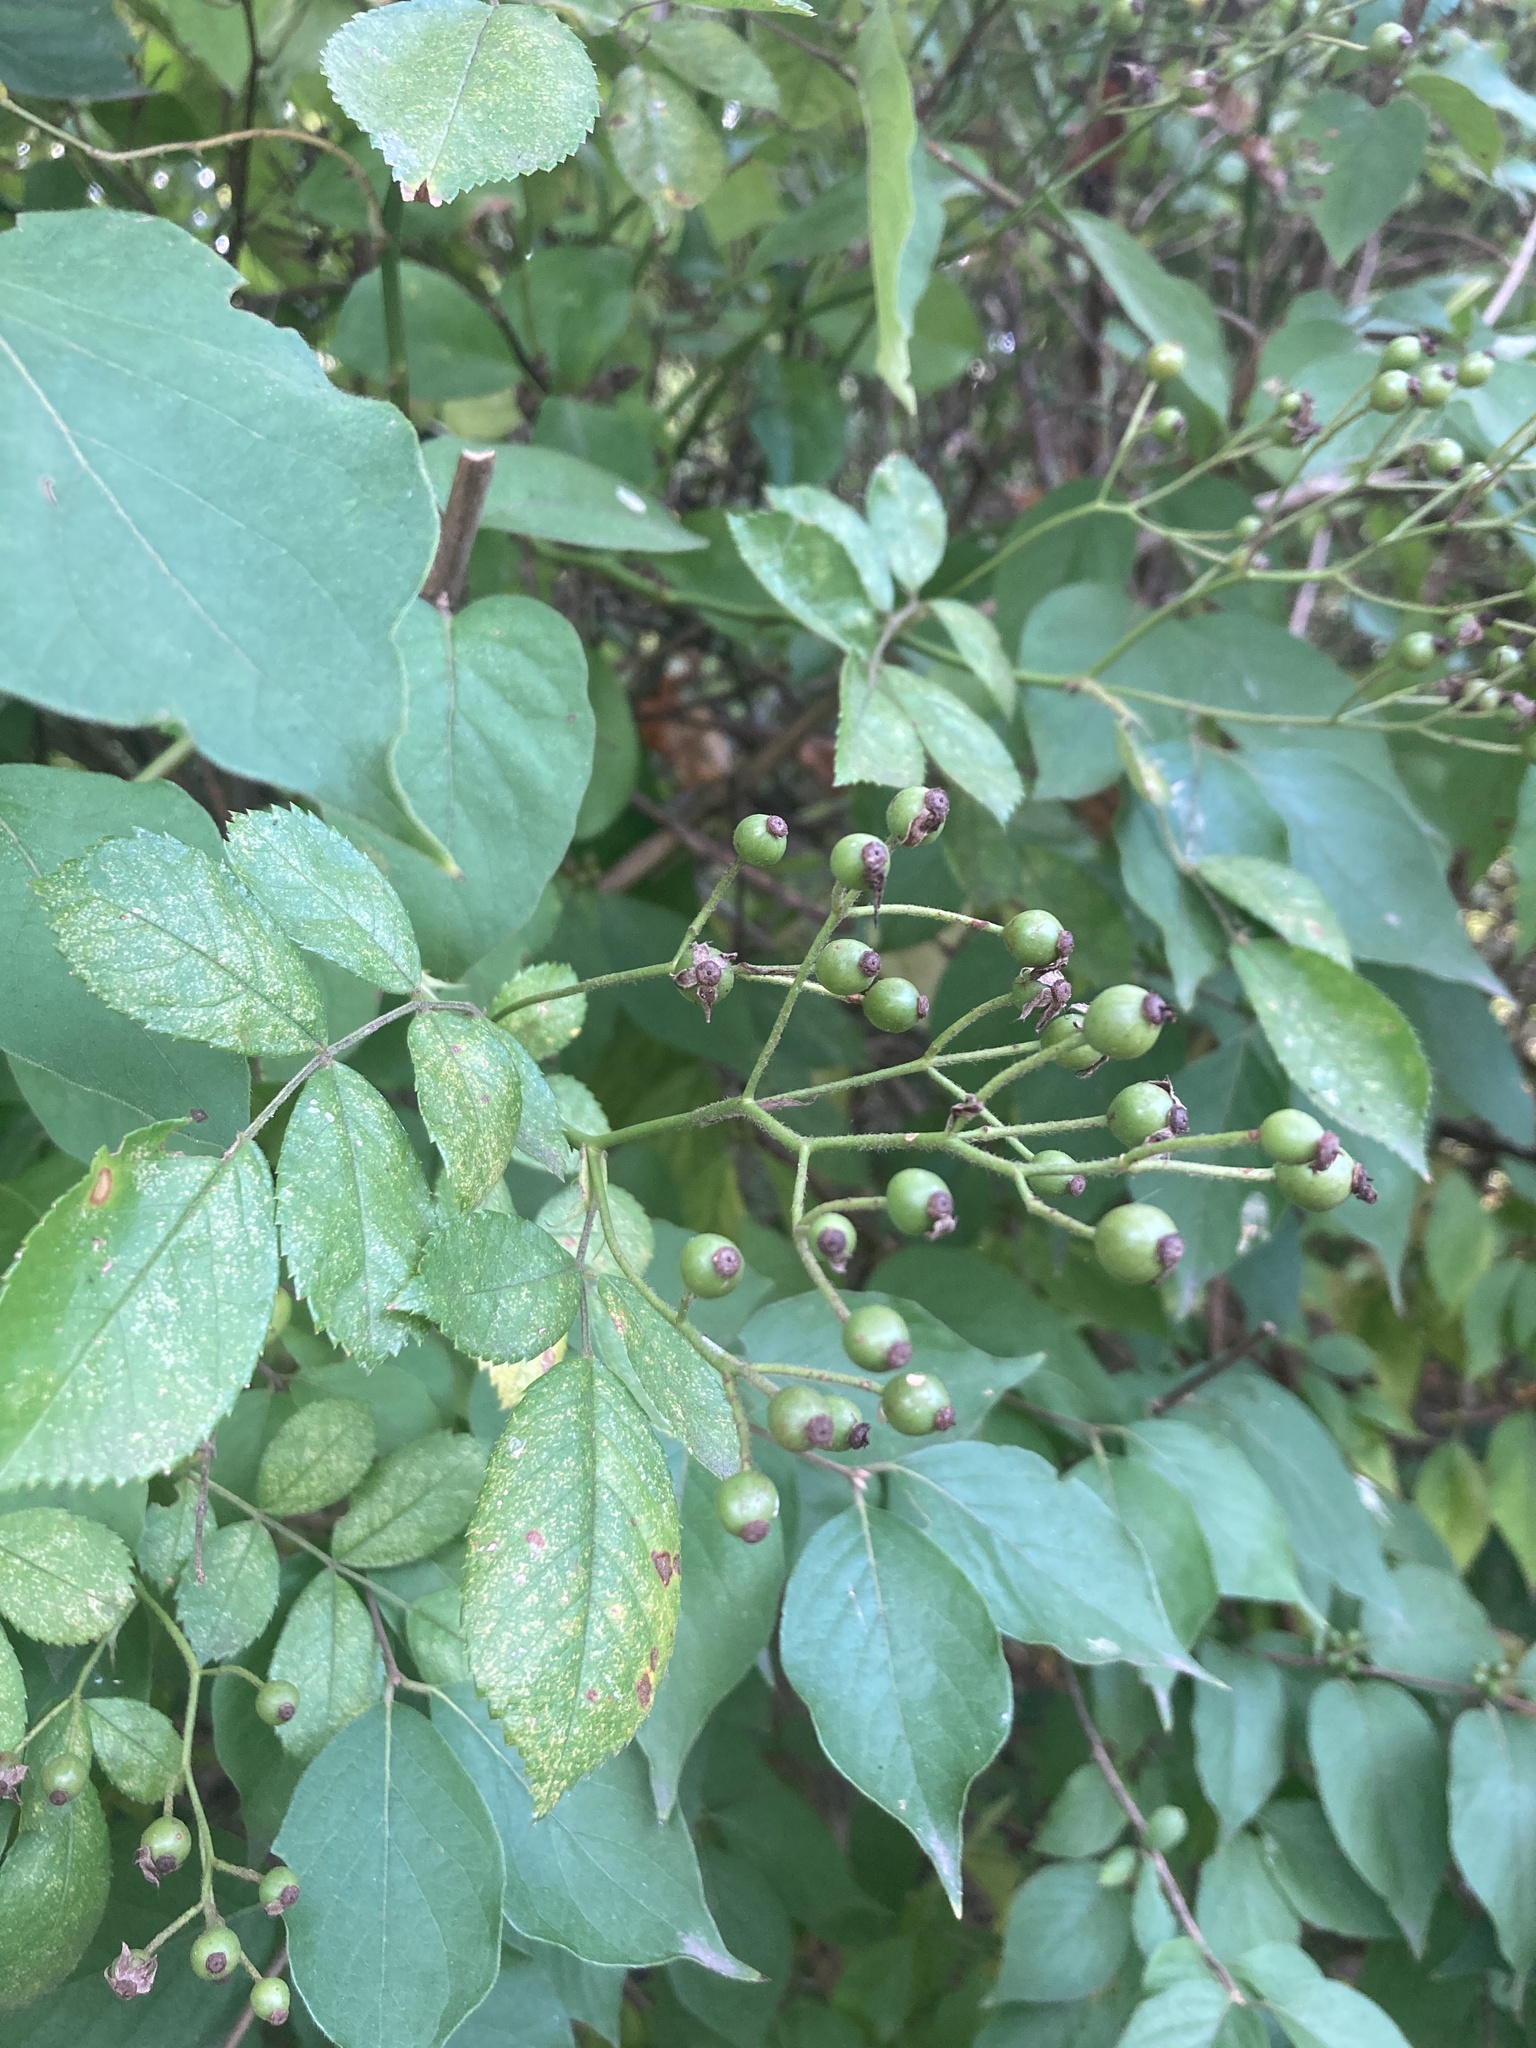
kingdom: Plantae
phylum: Tracheophyta
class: Magnoliopsida
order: Rosales
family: Rosaceae
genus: Rosa
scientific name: Rosa multiflora
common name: Multiflora rose
